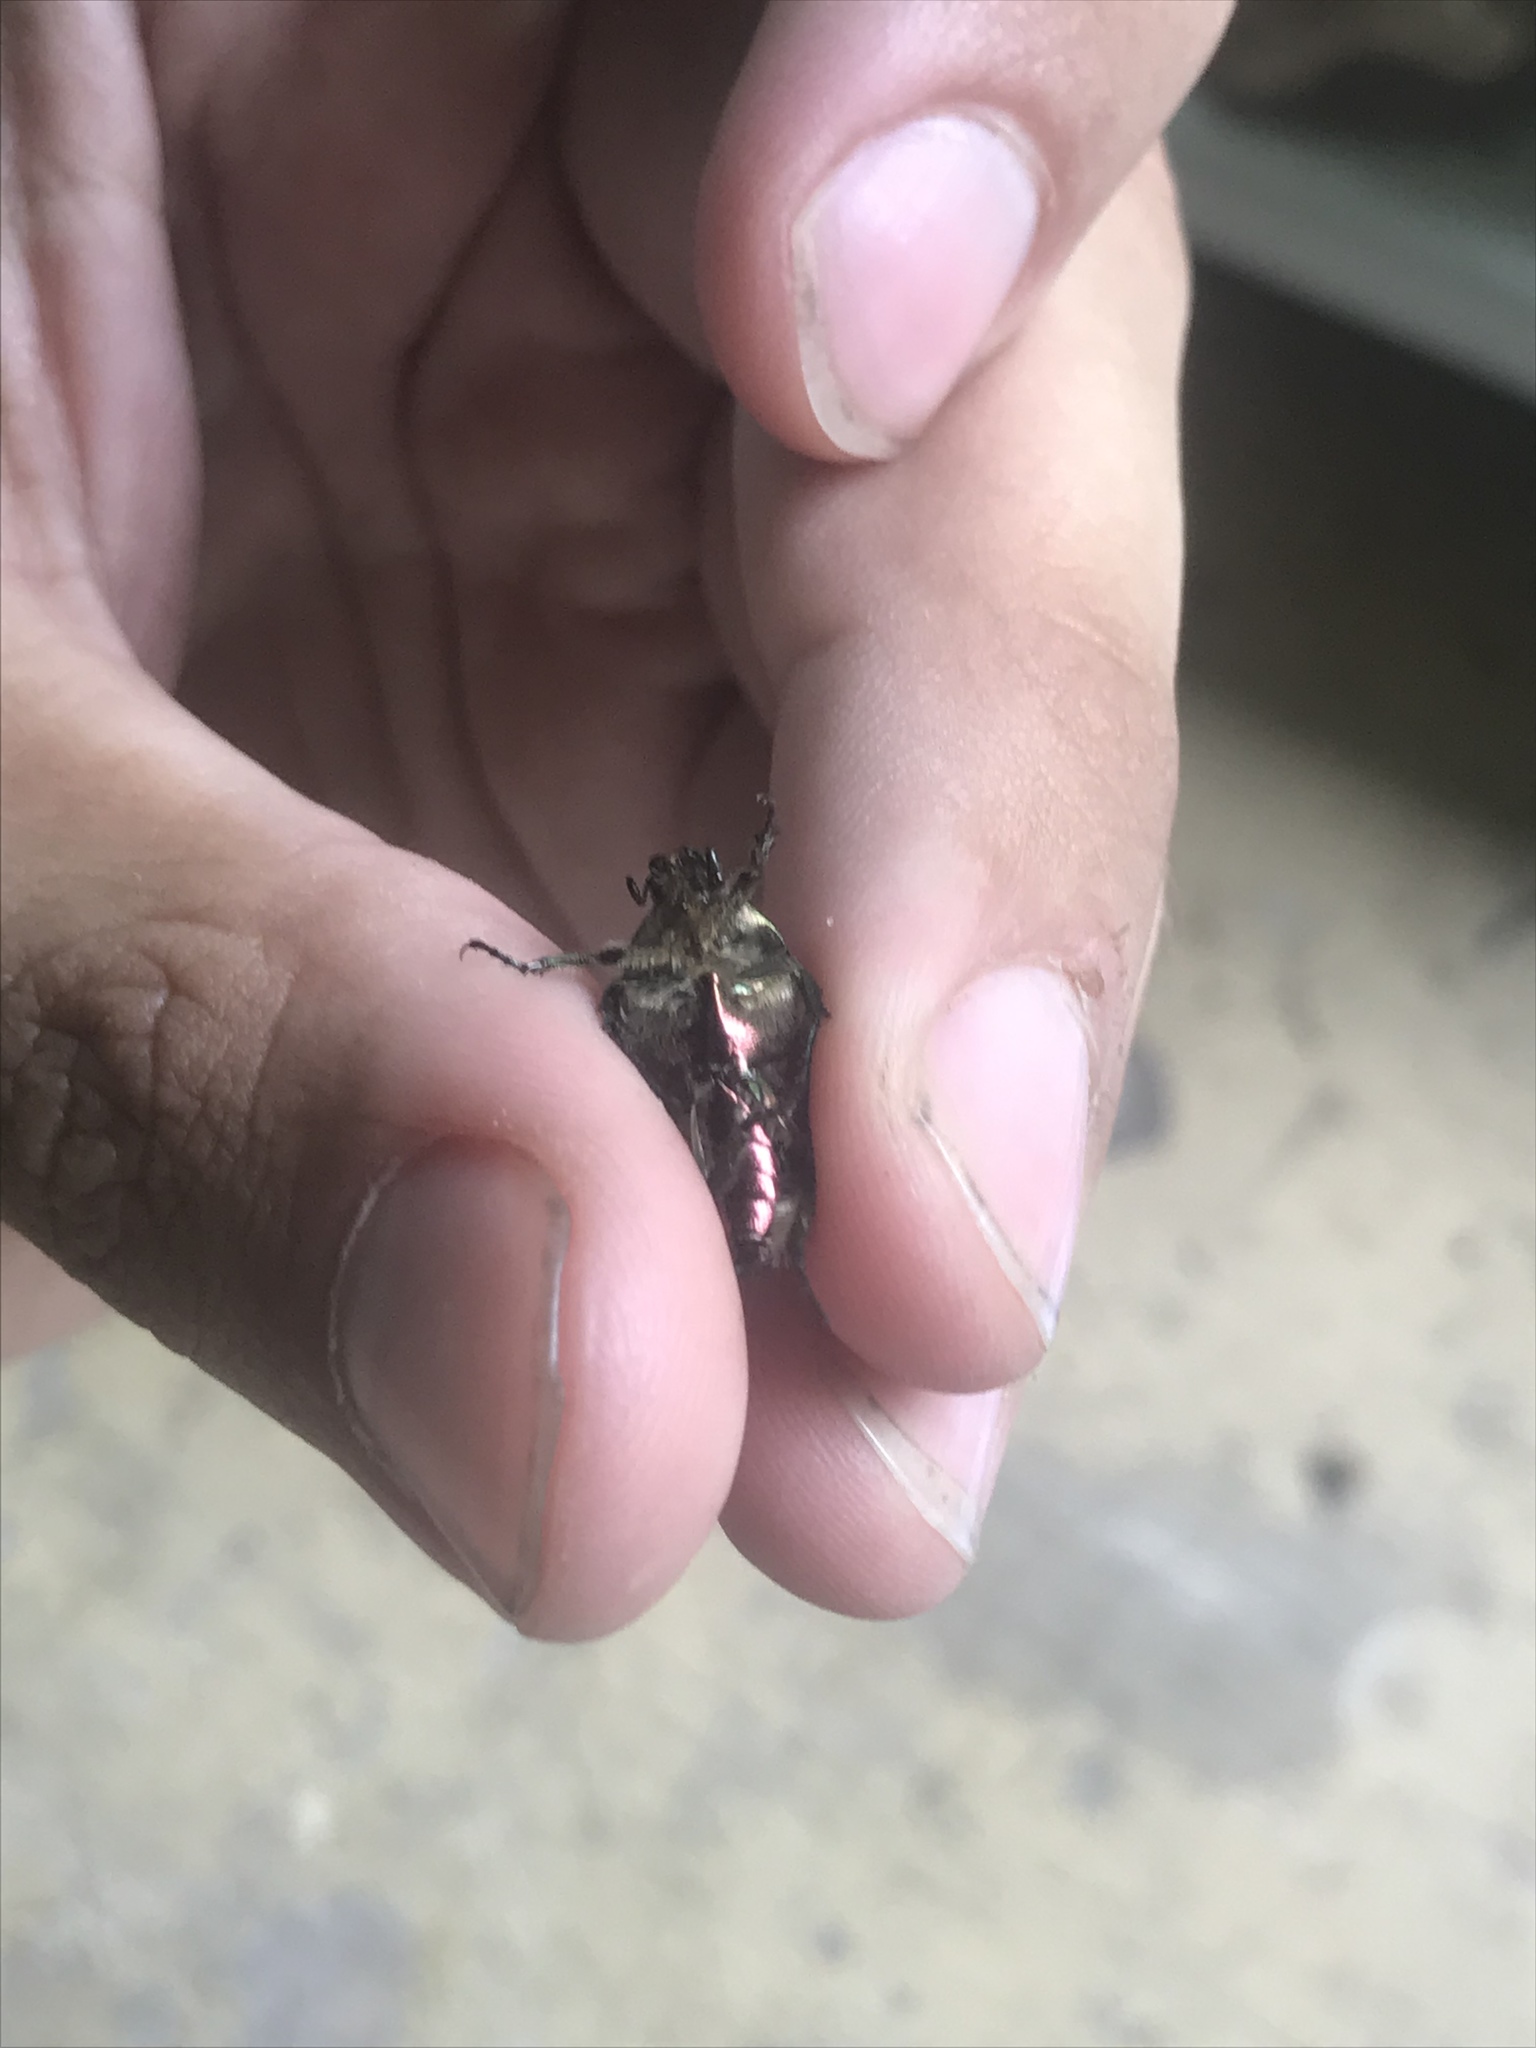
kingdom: Animalia
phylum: Arthropoda
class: Insecta
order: Coleoptera
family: Scarabaeidae
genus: Cetonia
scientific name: Cetonia aurata
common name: Rose chafer
